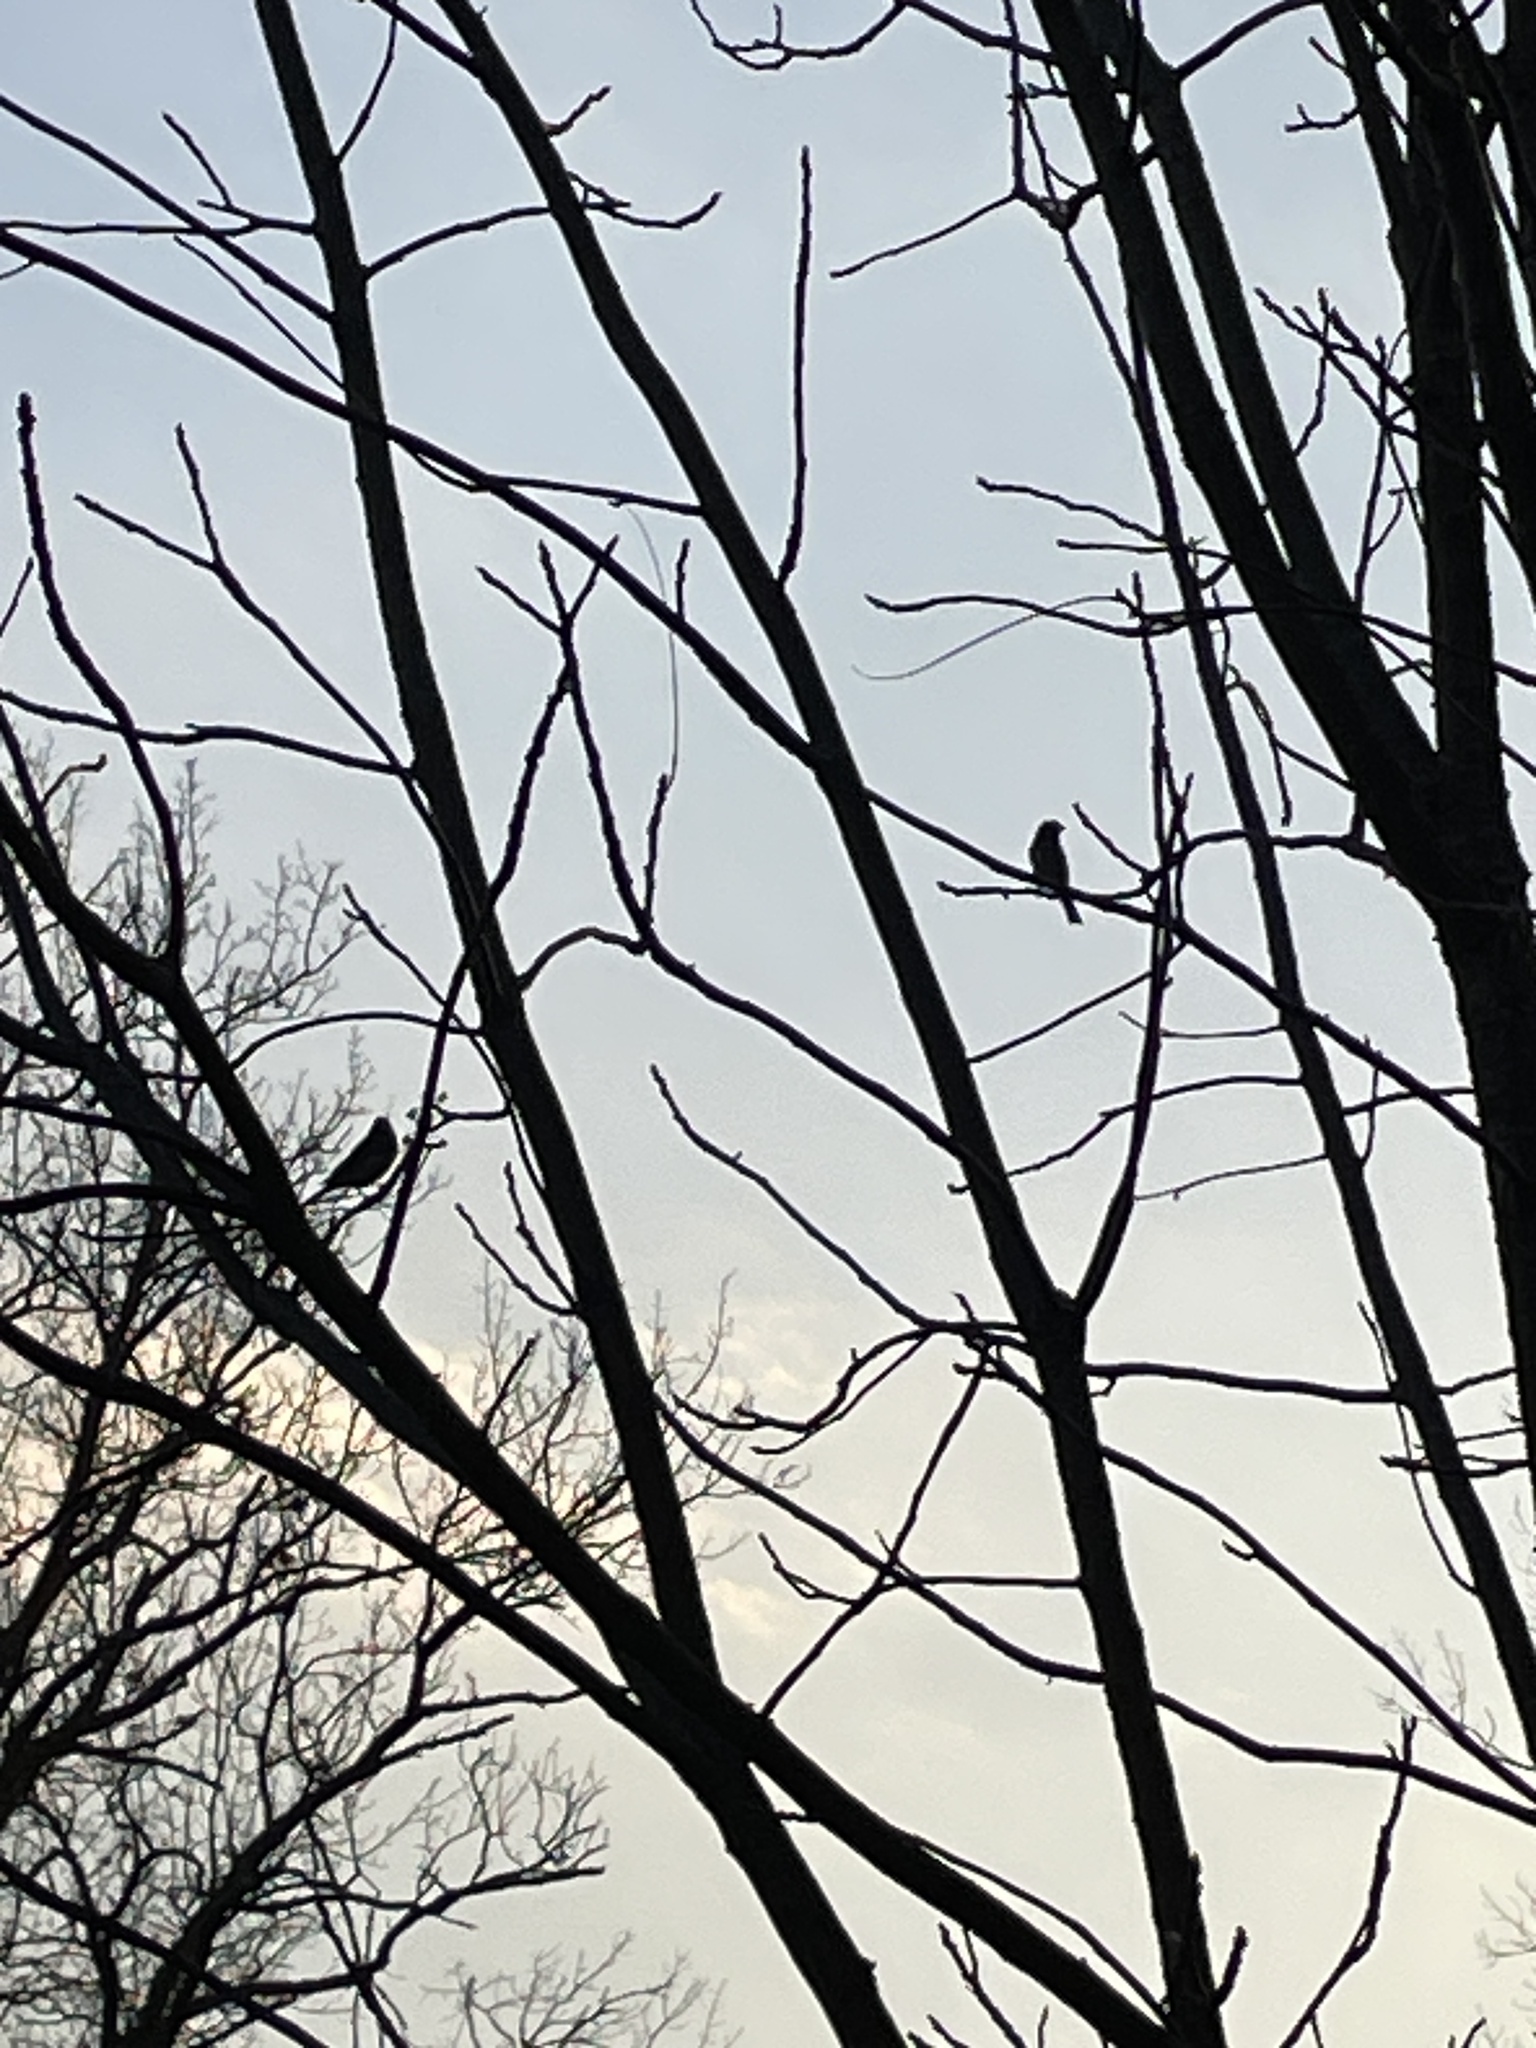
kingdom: Animalia
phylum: Chordata
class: Aves
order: Passeriformes
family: Passerellidae
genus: Junco
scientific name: Junco hyemalis
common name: Dark-eyed junco
